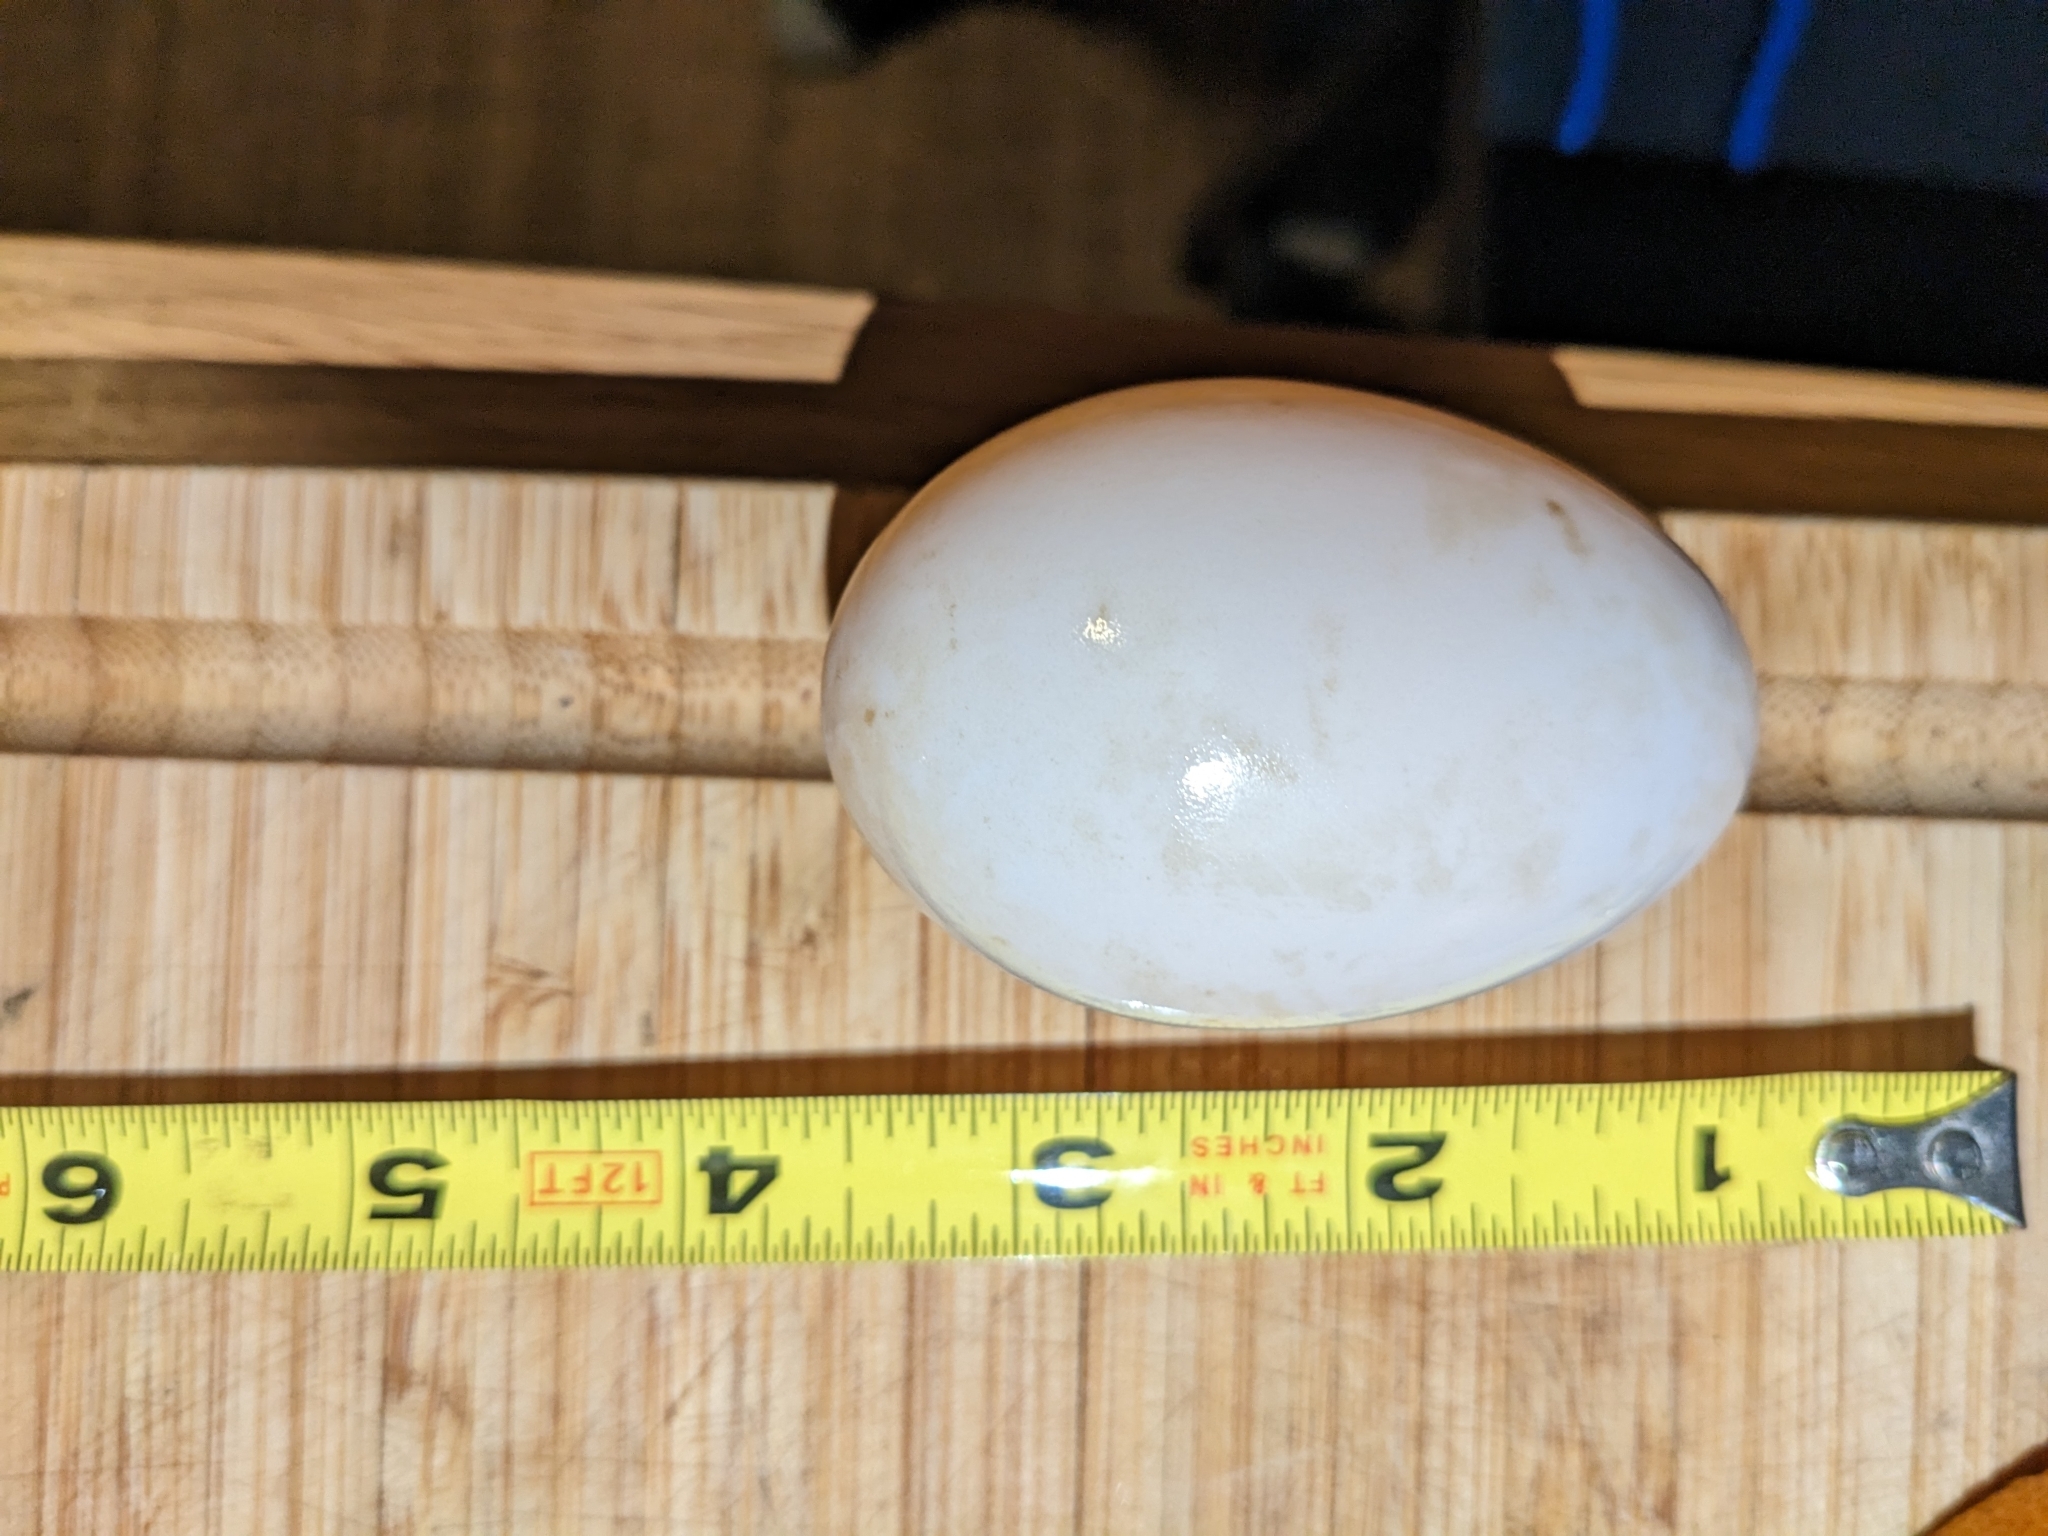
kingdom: Animalia
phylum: Chordata
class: Aves
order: Anseriformes
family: Anatidae
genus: Branta
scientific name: Branta canadensis
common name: Canada goose
